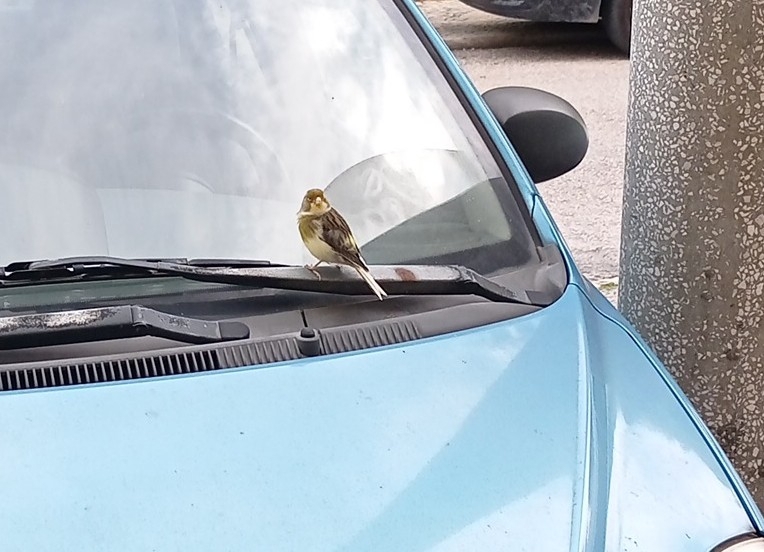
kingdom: Animalia
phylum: Chordata
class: Aves
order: Passeriformes
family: Fringillidae
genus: Serinus
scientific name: Serinus canaria
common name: Atlantic canary
